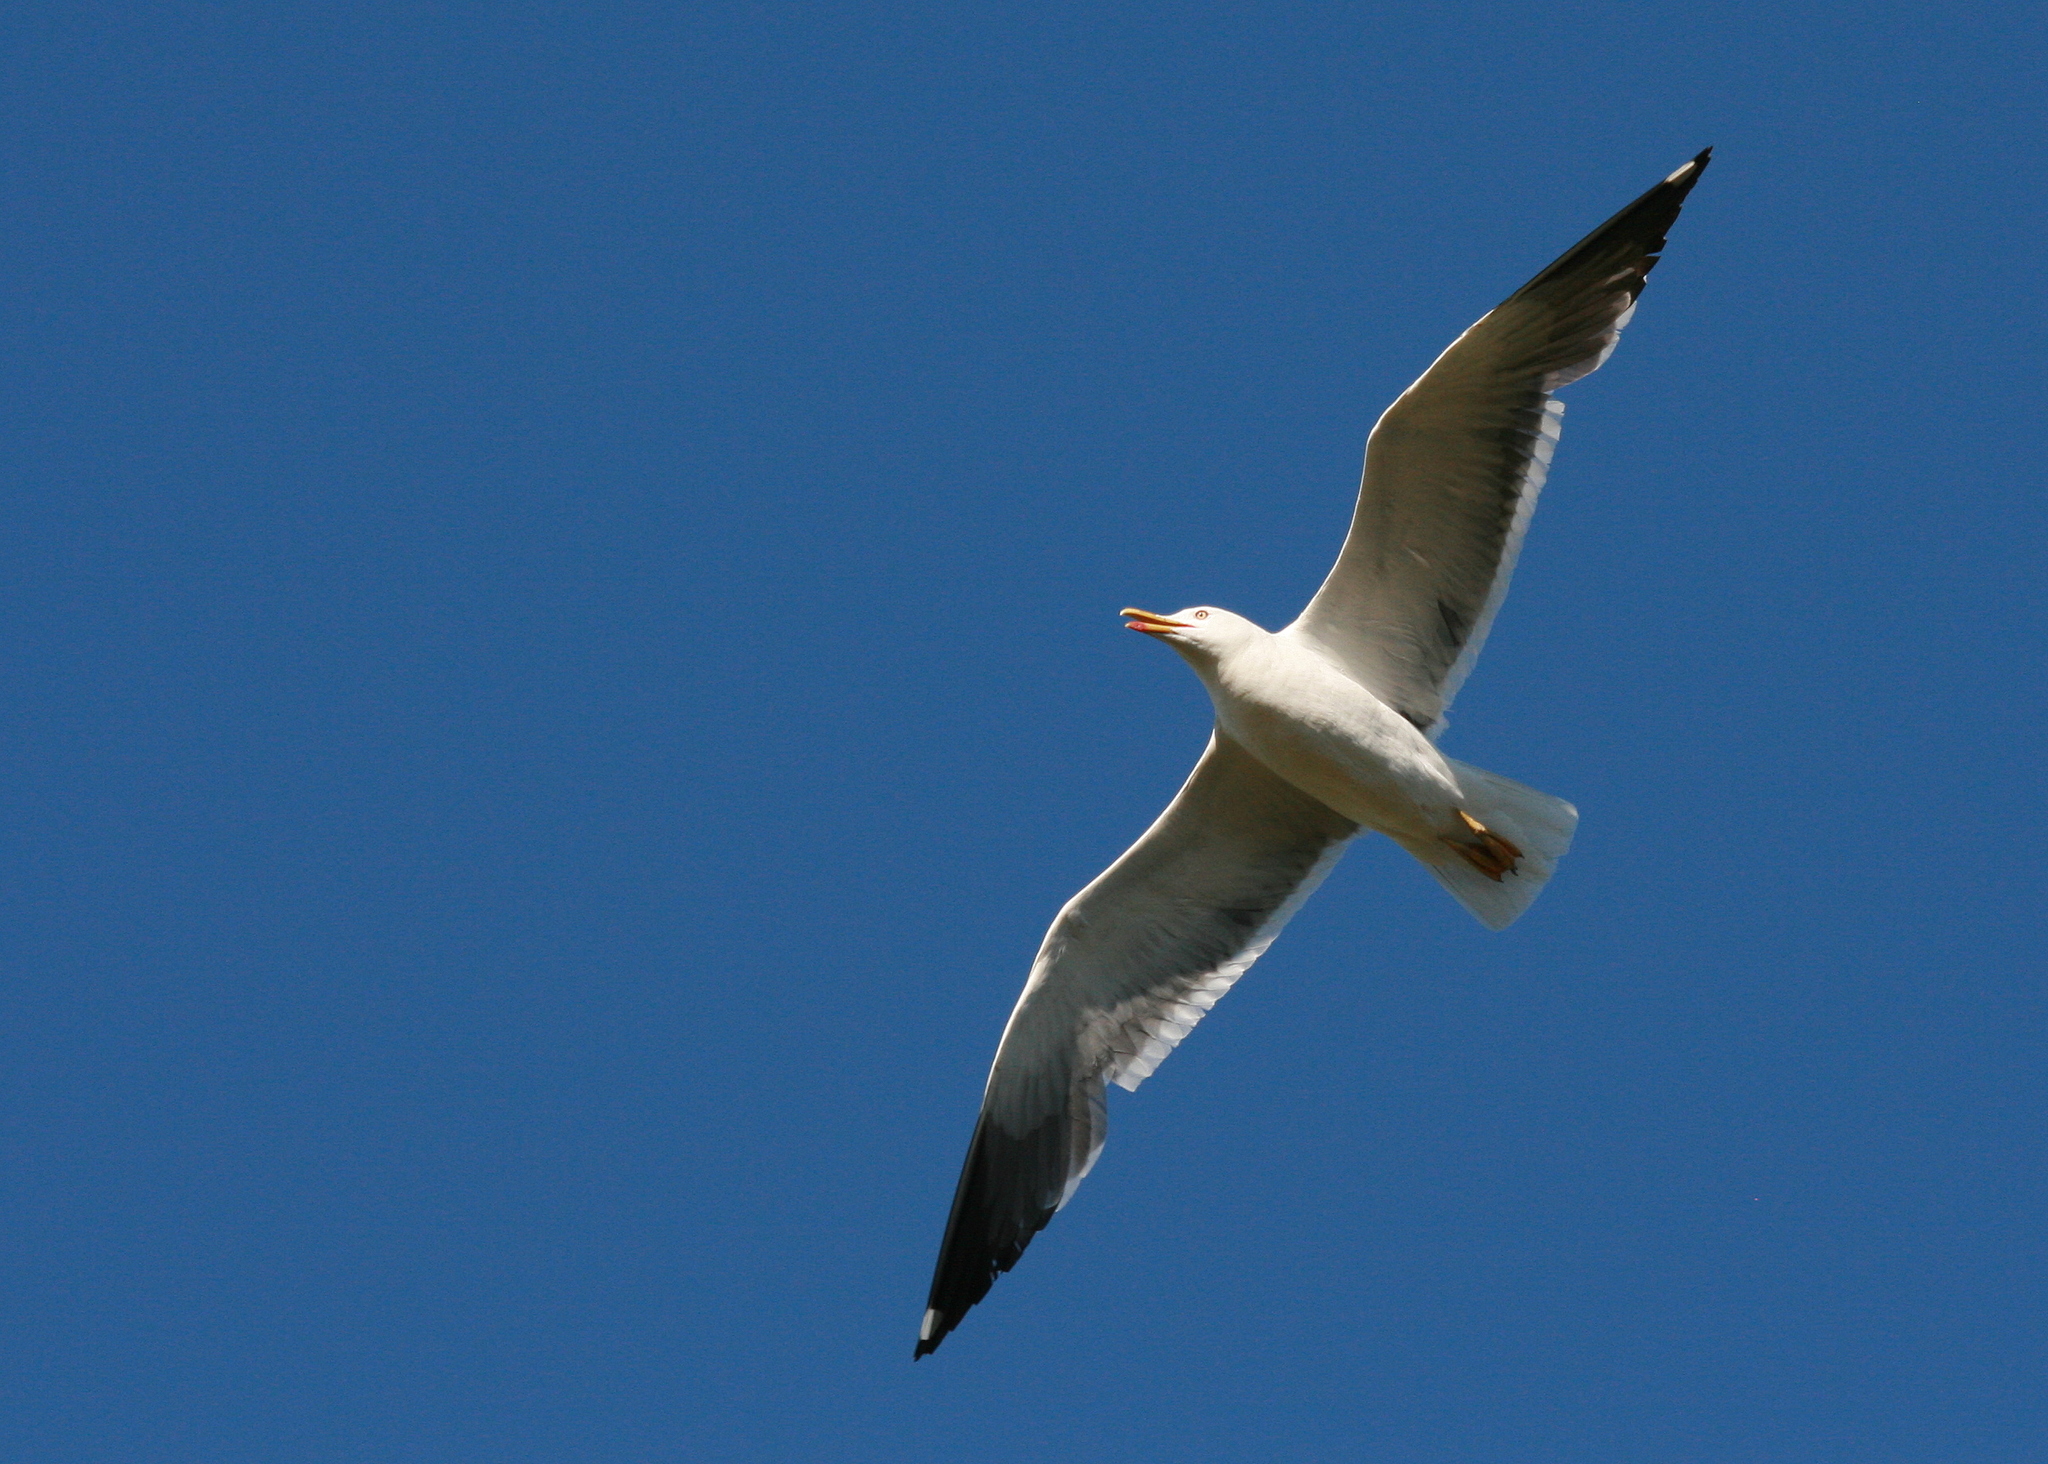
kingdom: Animalia
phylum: Chordata
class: Aves
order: Charadriiformes
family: Laridae
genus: Larus
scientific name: Larus fuscus
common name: Lesser black-backed gull
